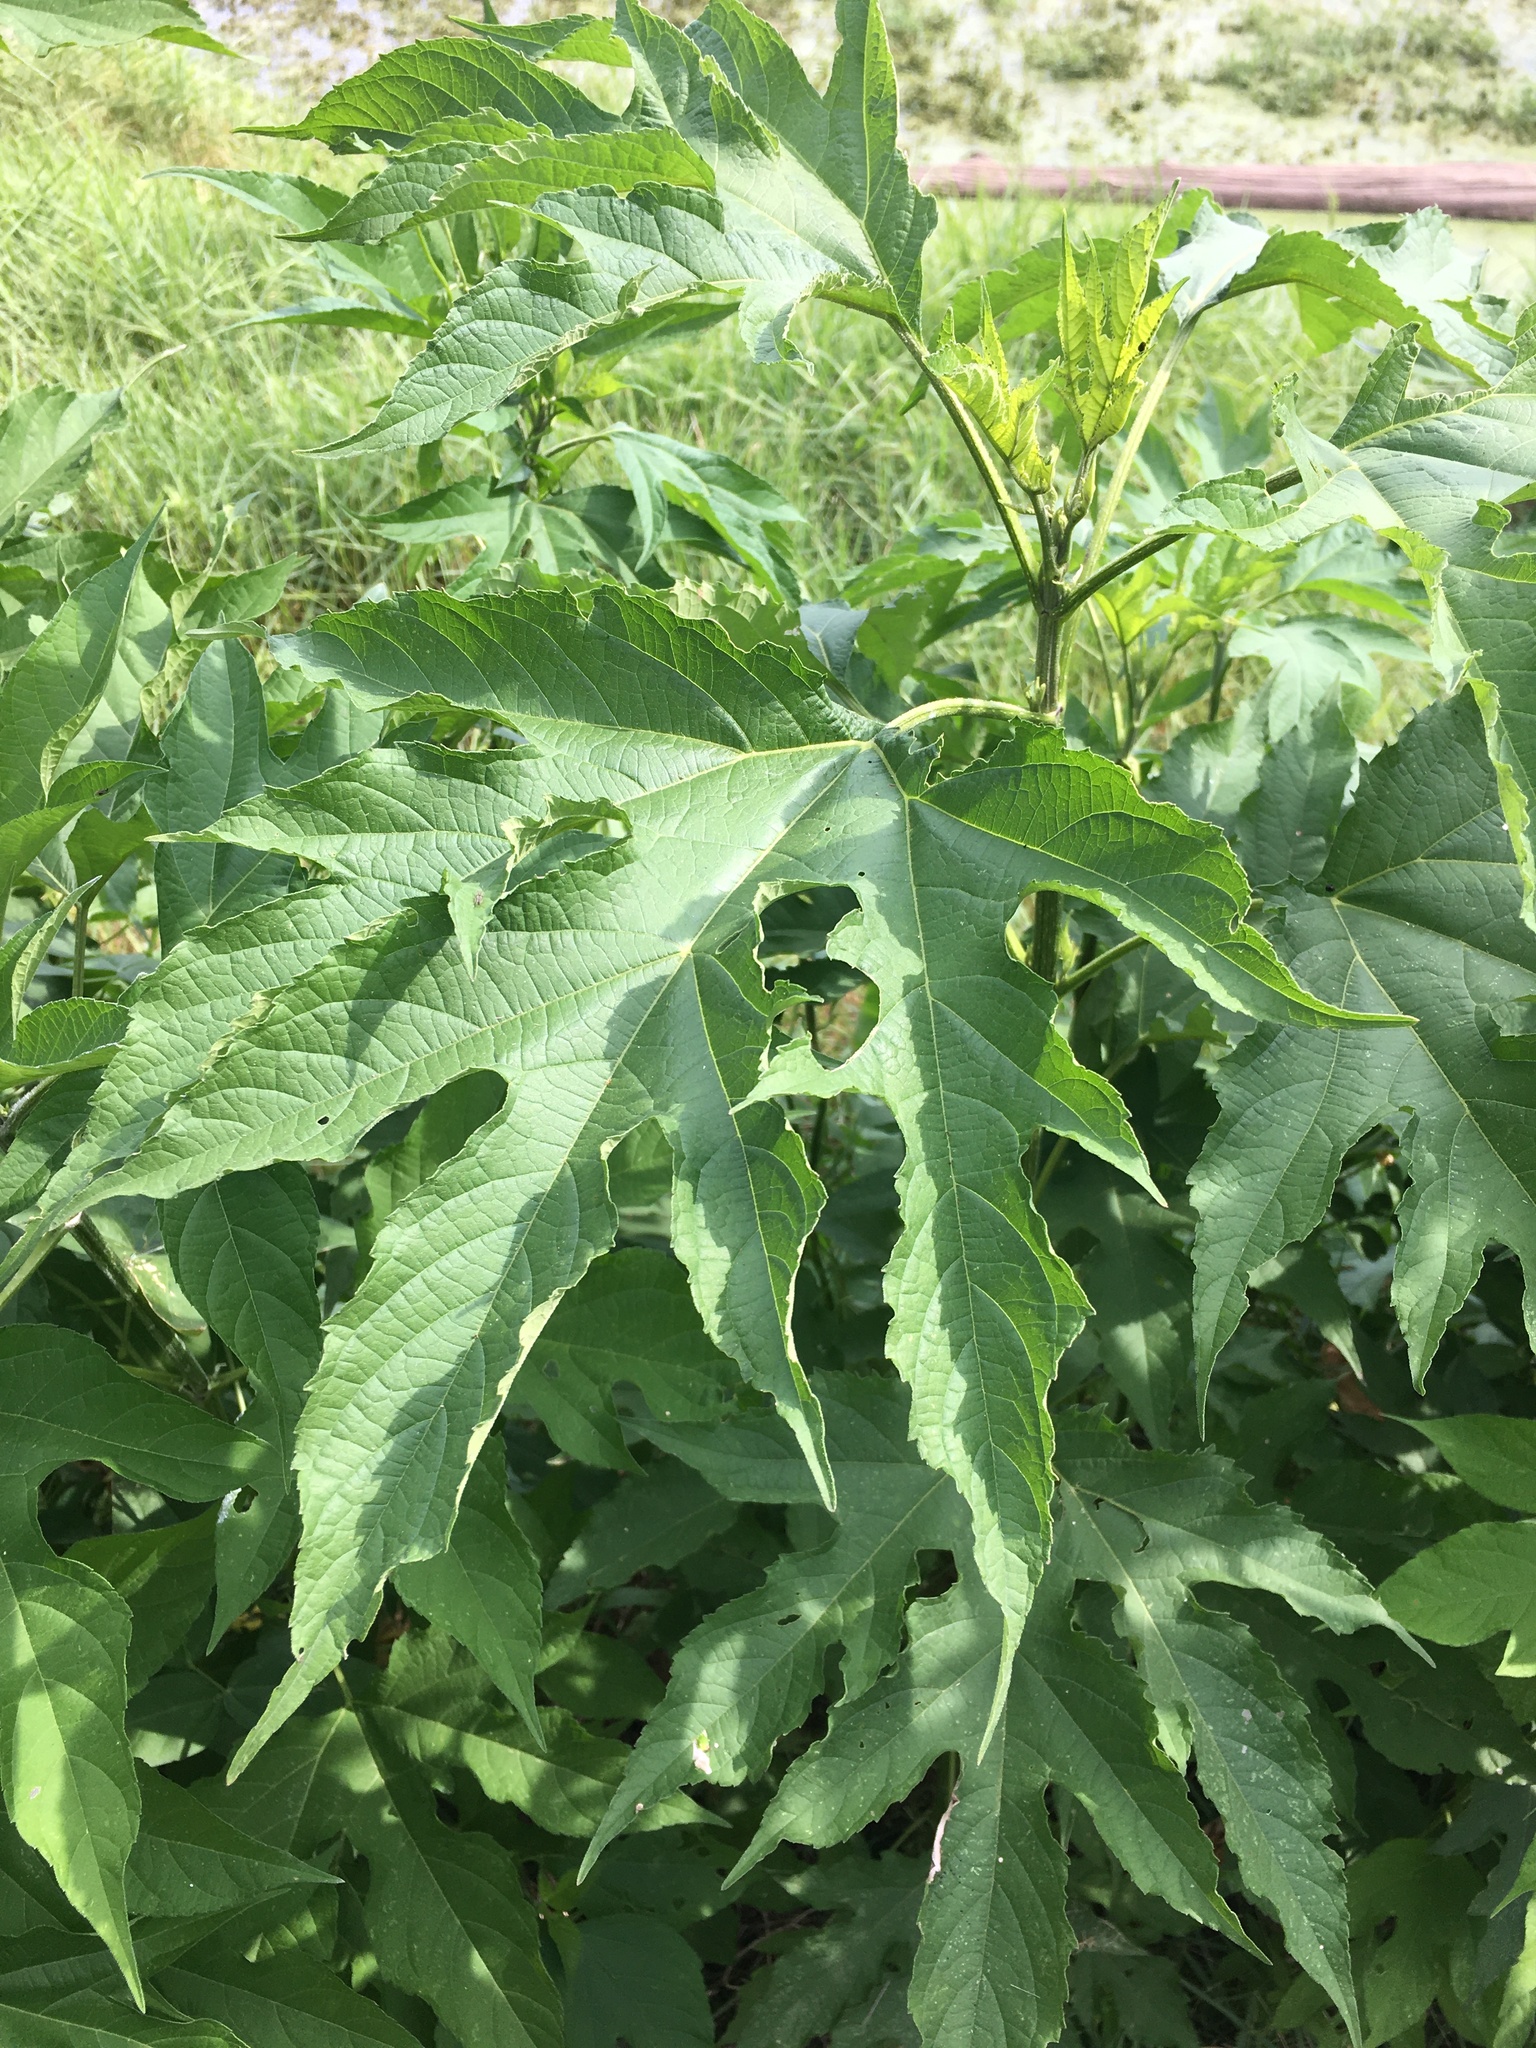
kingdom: Plantae
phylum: Tracheophyta
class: Magnoliopsida
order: Asterales
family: Asteraceae
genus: Ambrosia
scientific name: Ambrosia trifida
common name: Giant ragweed
